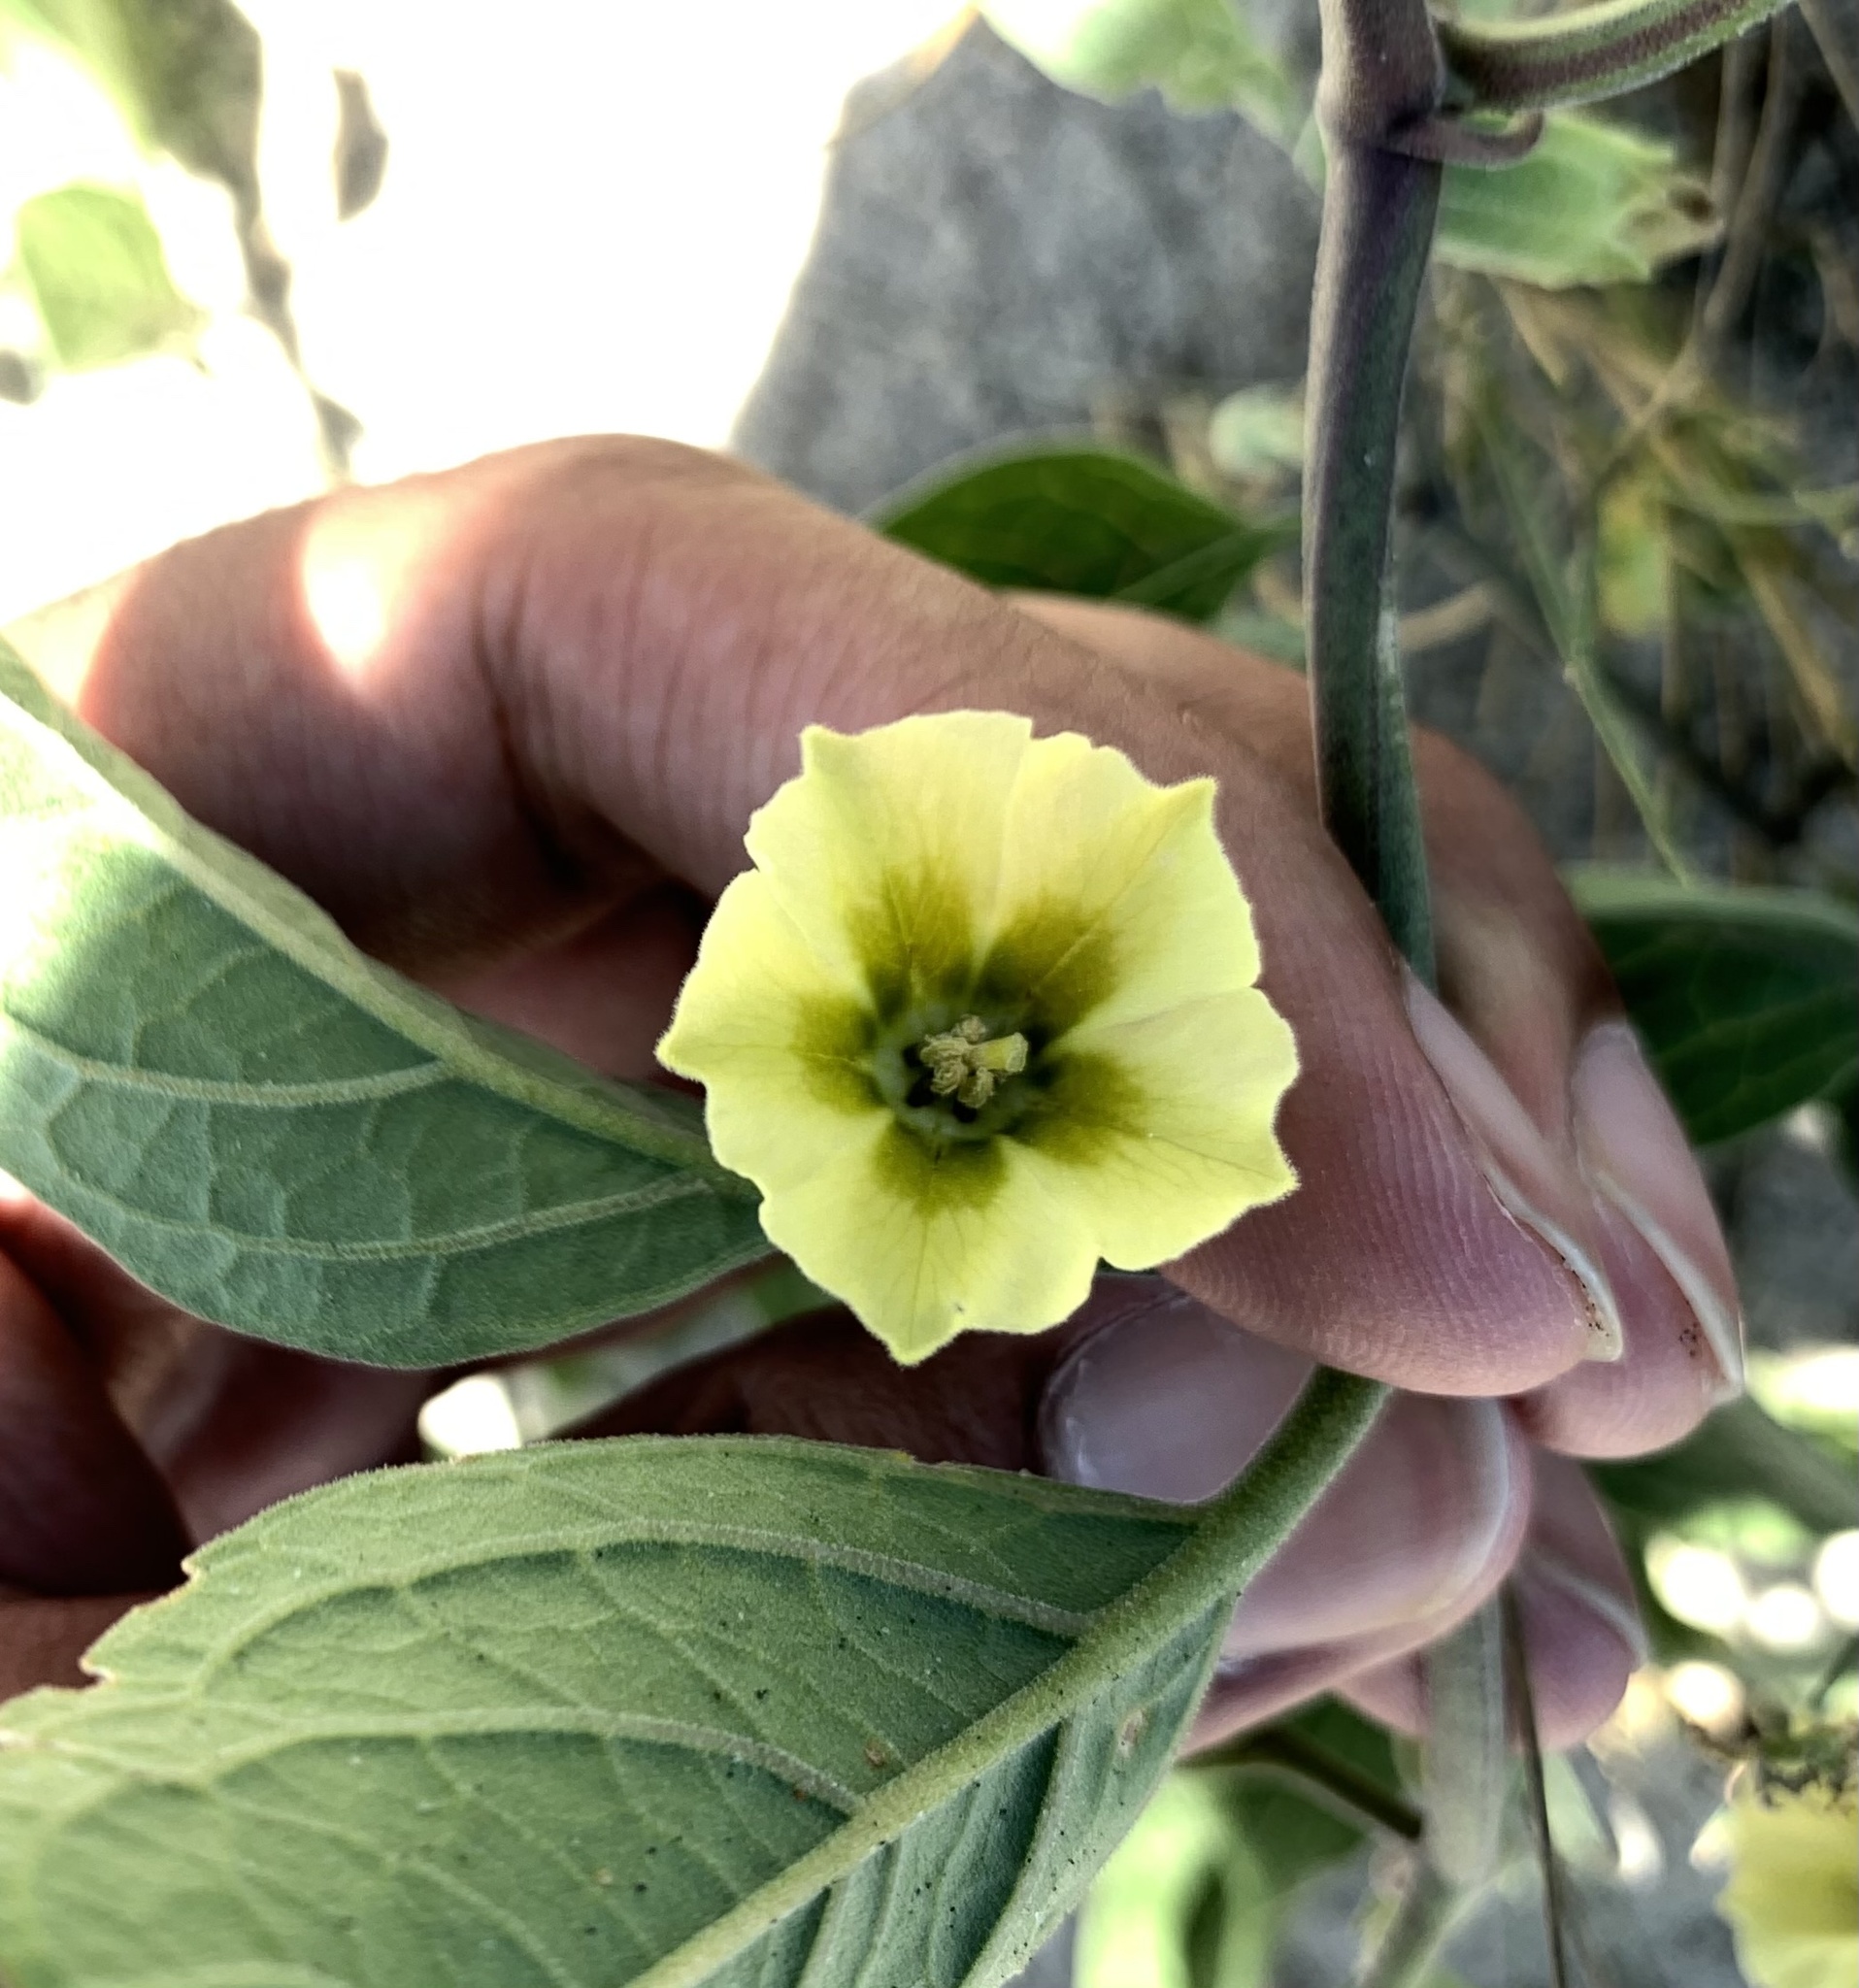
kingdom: Plantae
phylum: Tracheophyta
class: Magnoliopsida
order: Solanales
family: Solanaceae
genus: Physalis
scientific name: Physalis walteri
